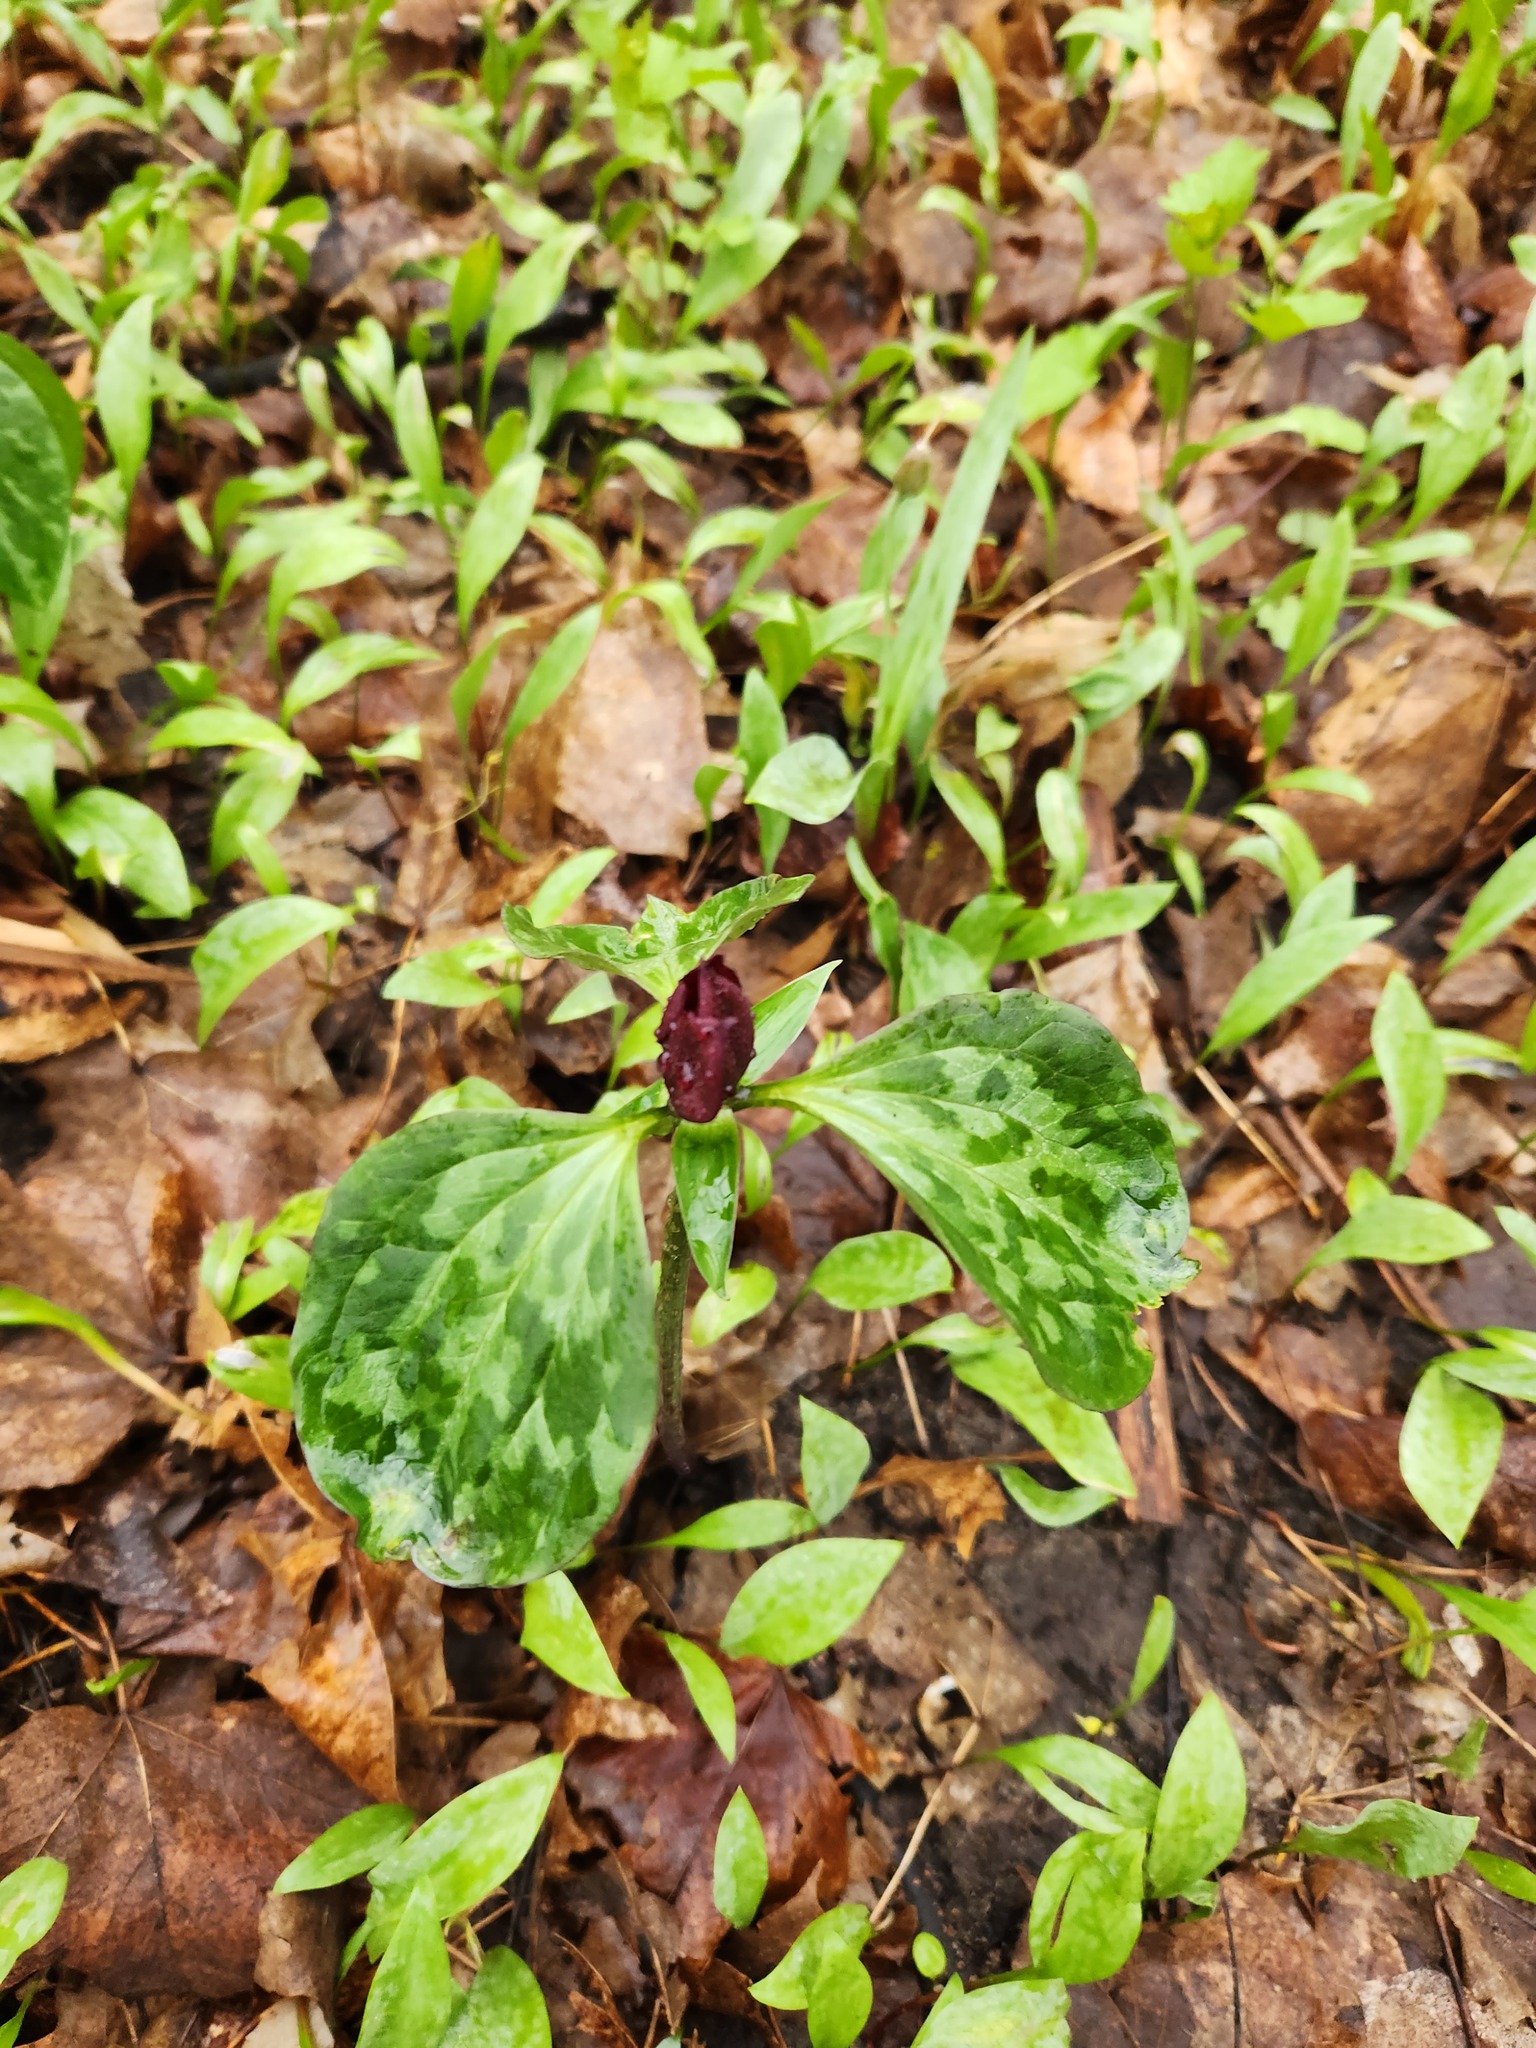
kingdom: Plantae
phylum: Tracheophyta
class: Liliopsida
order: Liliales
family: Melanthiaceae
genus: Trillium
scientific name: Trillium recurvatum
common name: Bloody butcher
